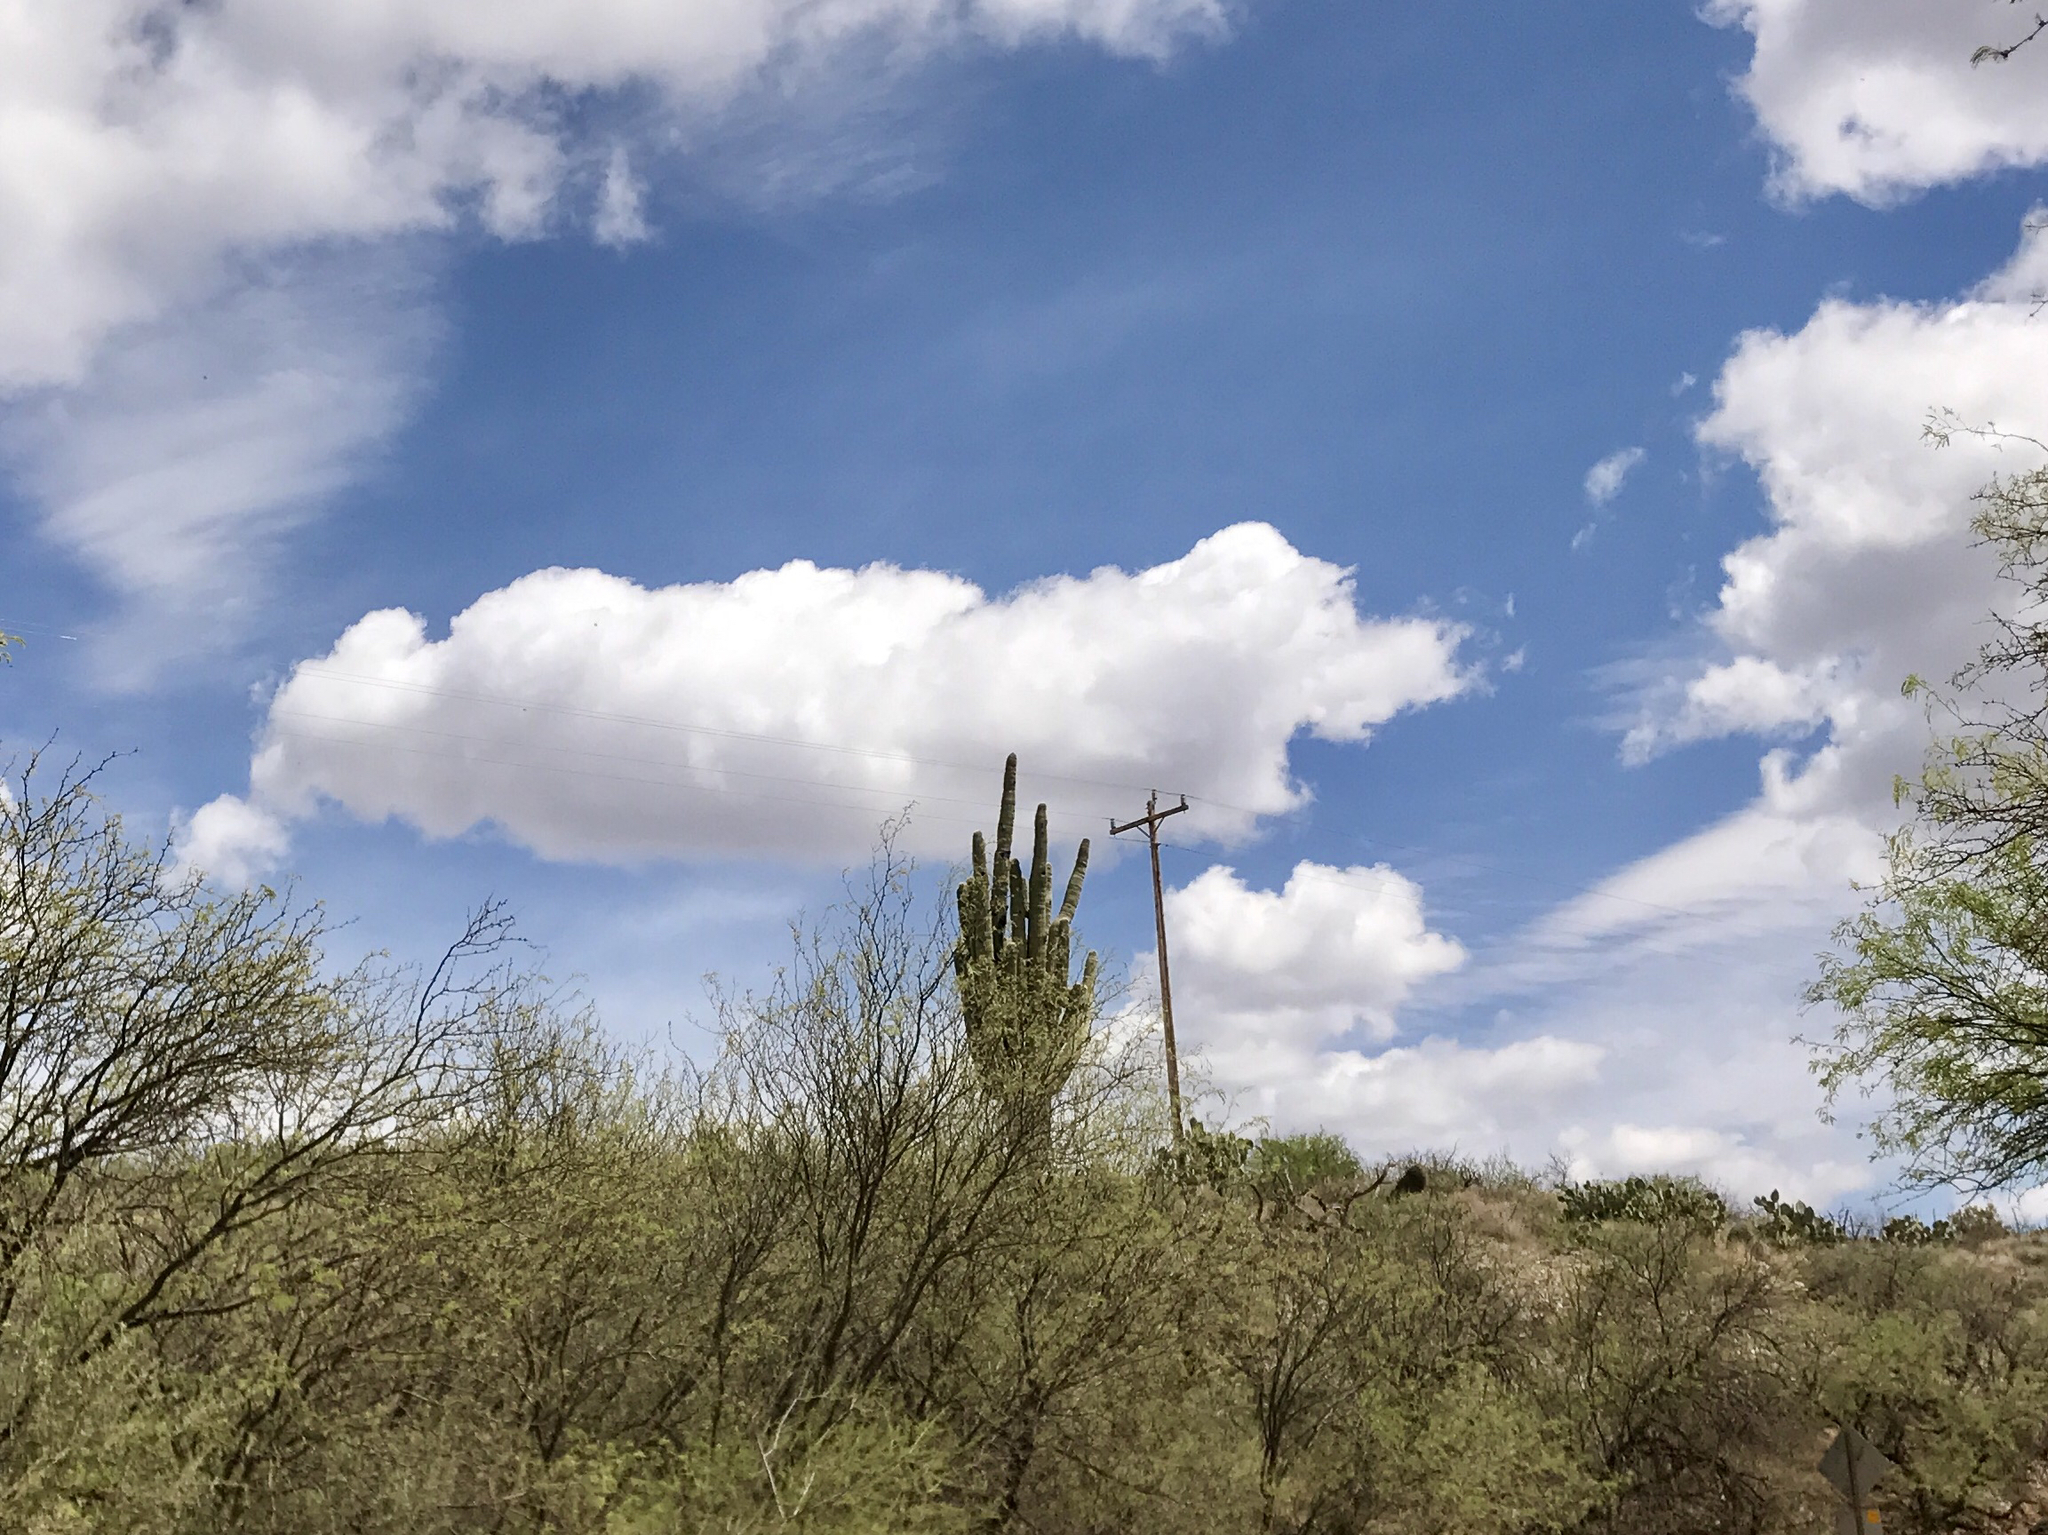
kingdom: Plantae
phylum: Tracheophyta
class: Magnoliopsida
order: Caryophyllales
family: Cactaceae
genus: Carnegiea
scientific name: Carnegiea gigantea
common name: Saguaro
